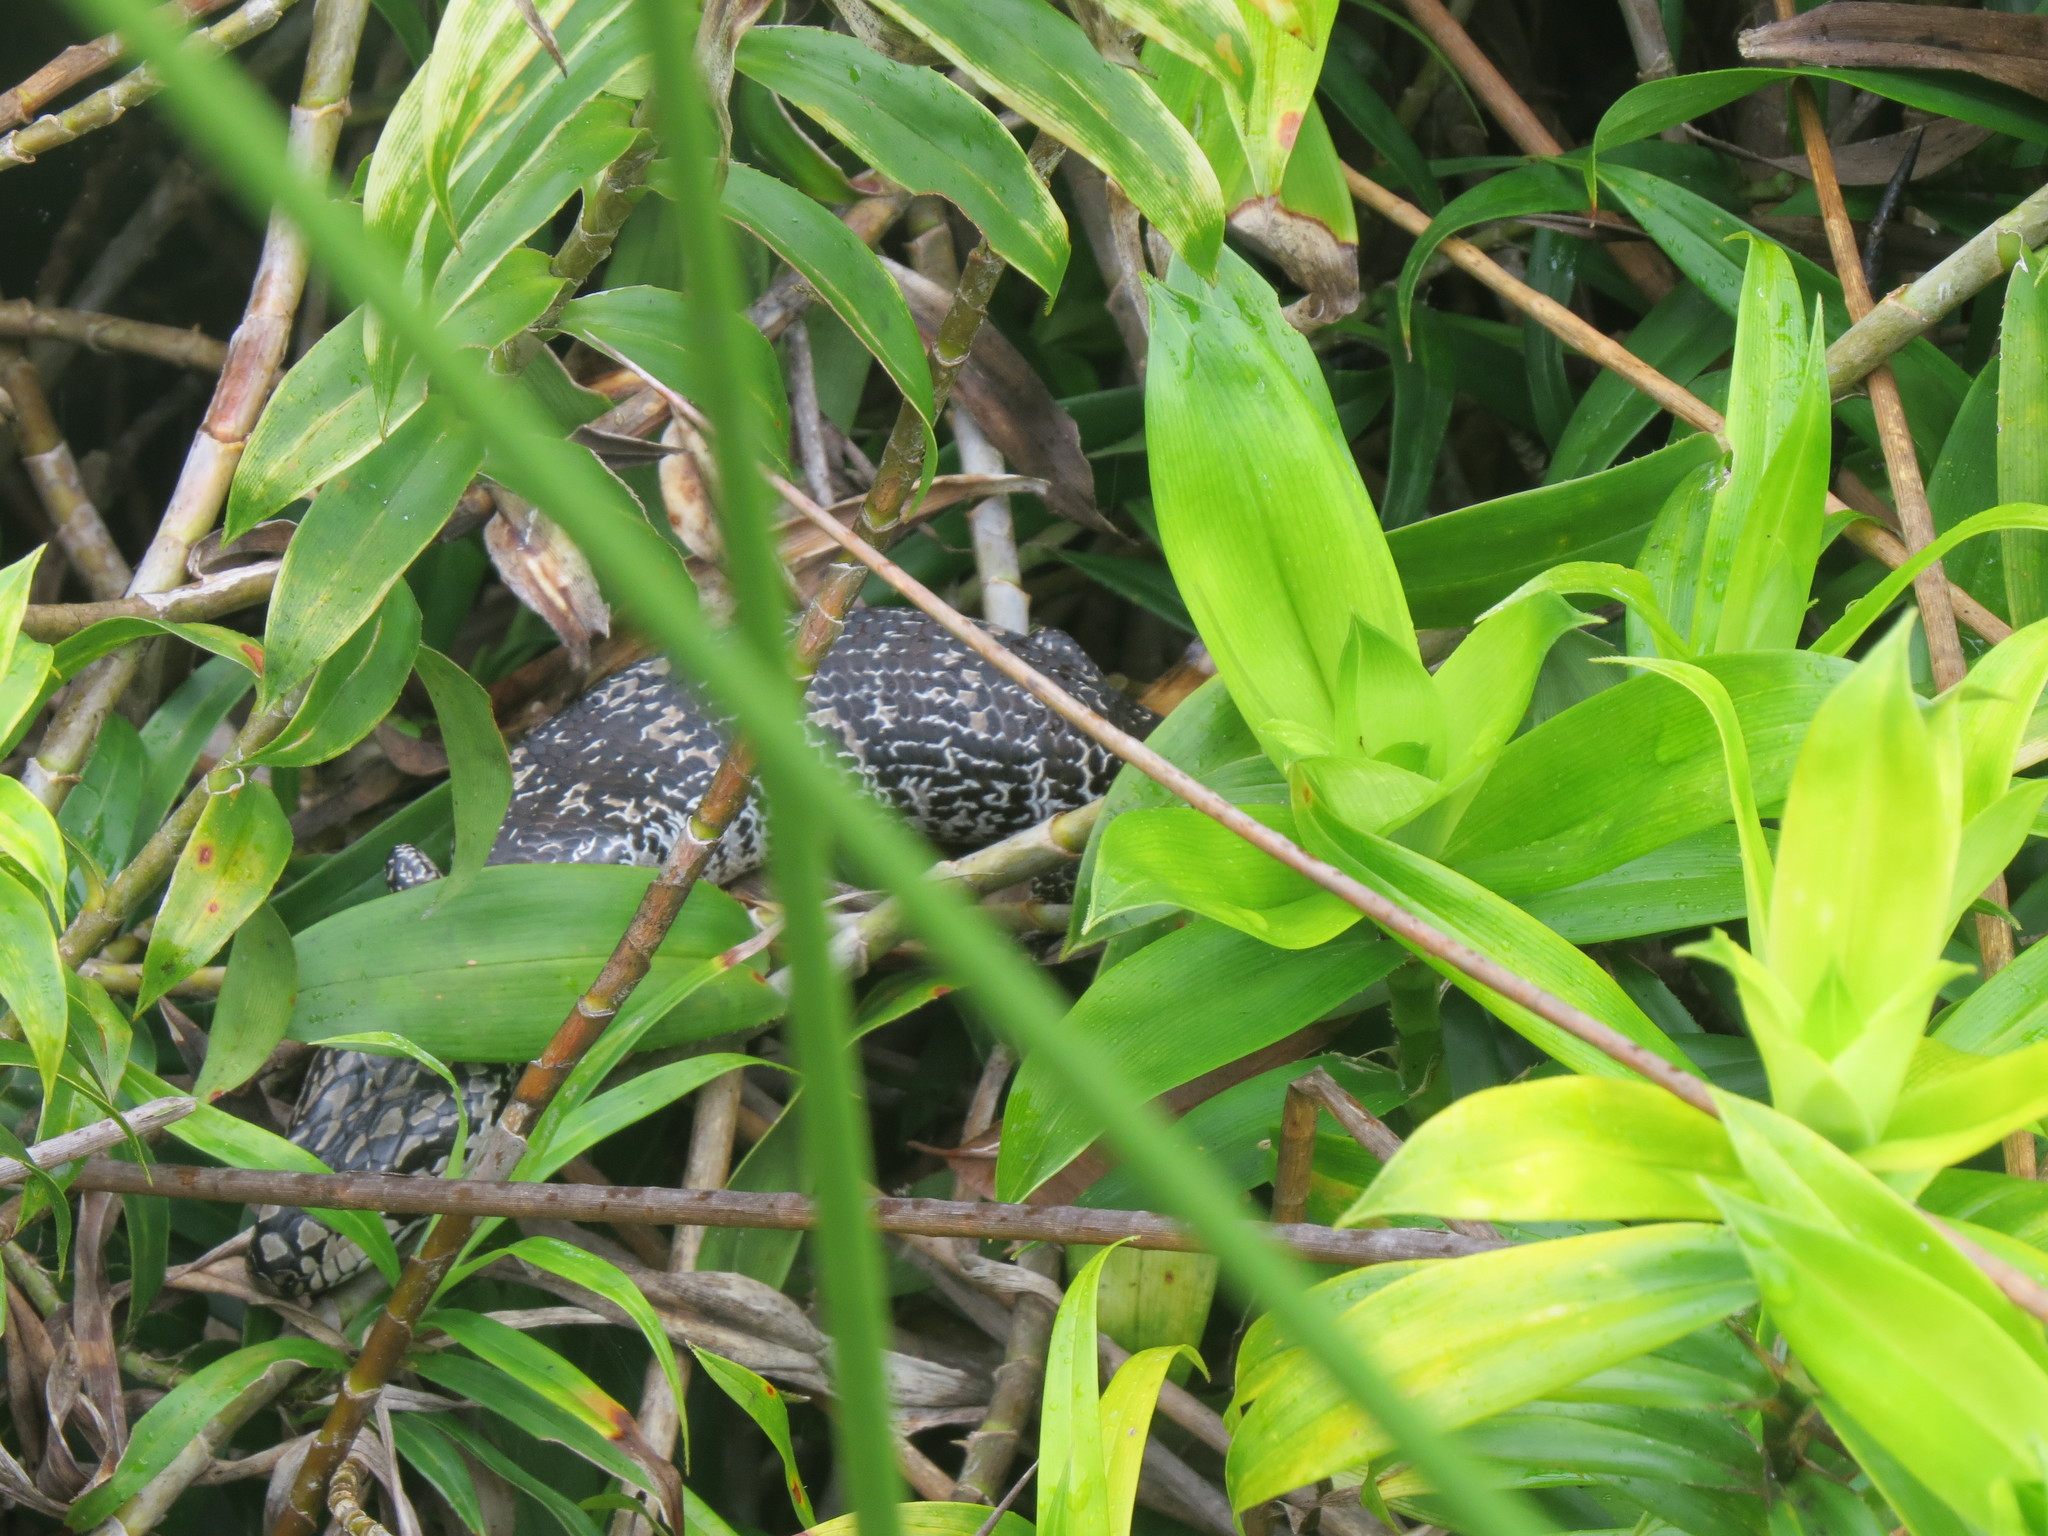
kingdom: Animalia
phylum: Chordata
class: Squamata
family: Scincidae
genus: Cyclodomorphus
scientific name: Cyclodomorphus gerrardii
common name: Pink-tongued lizard
